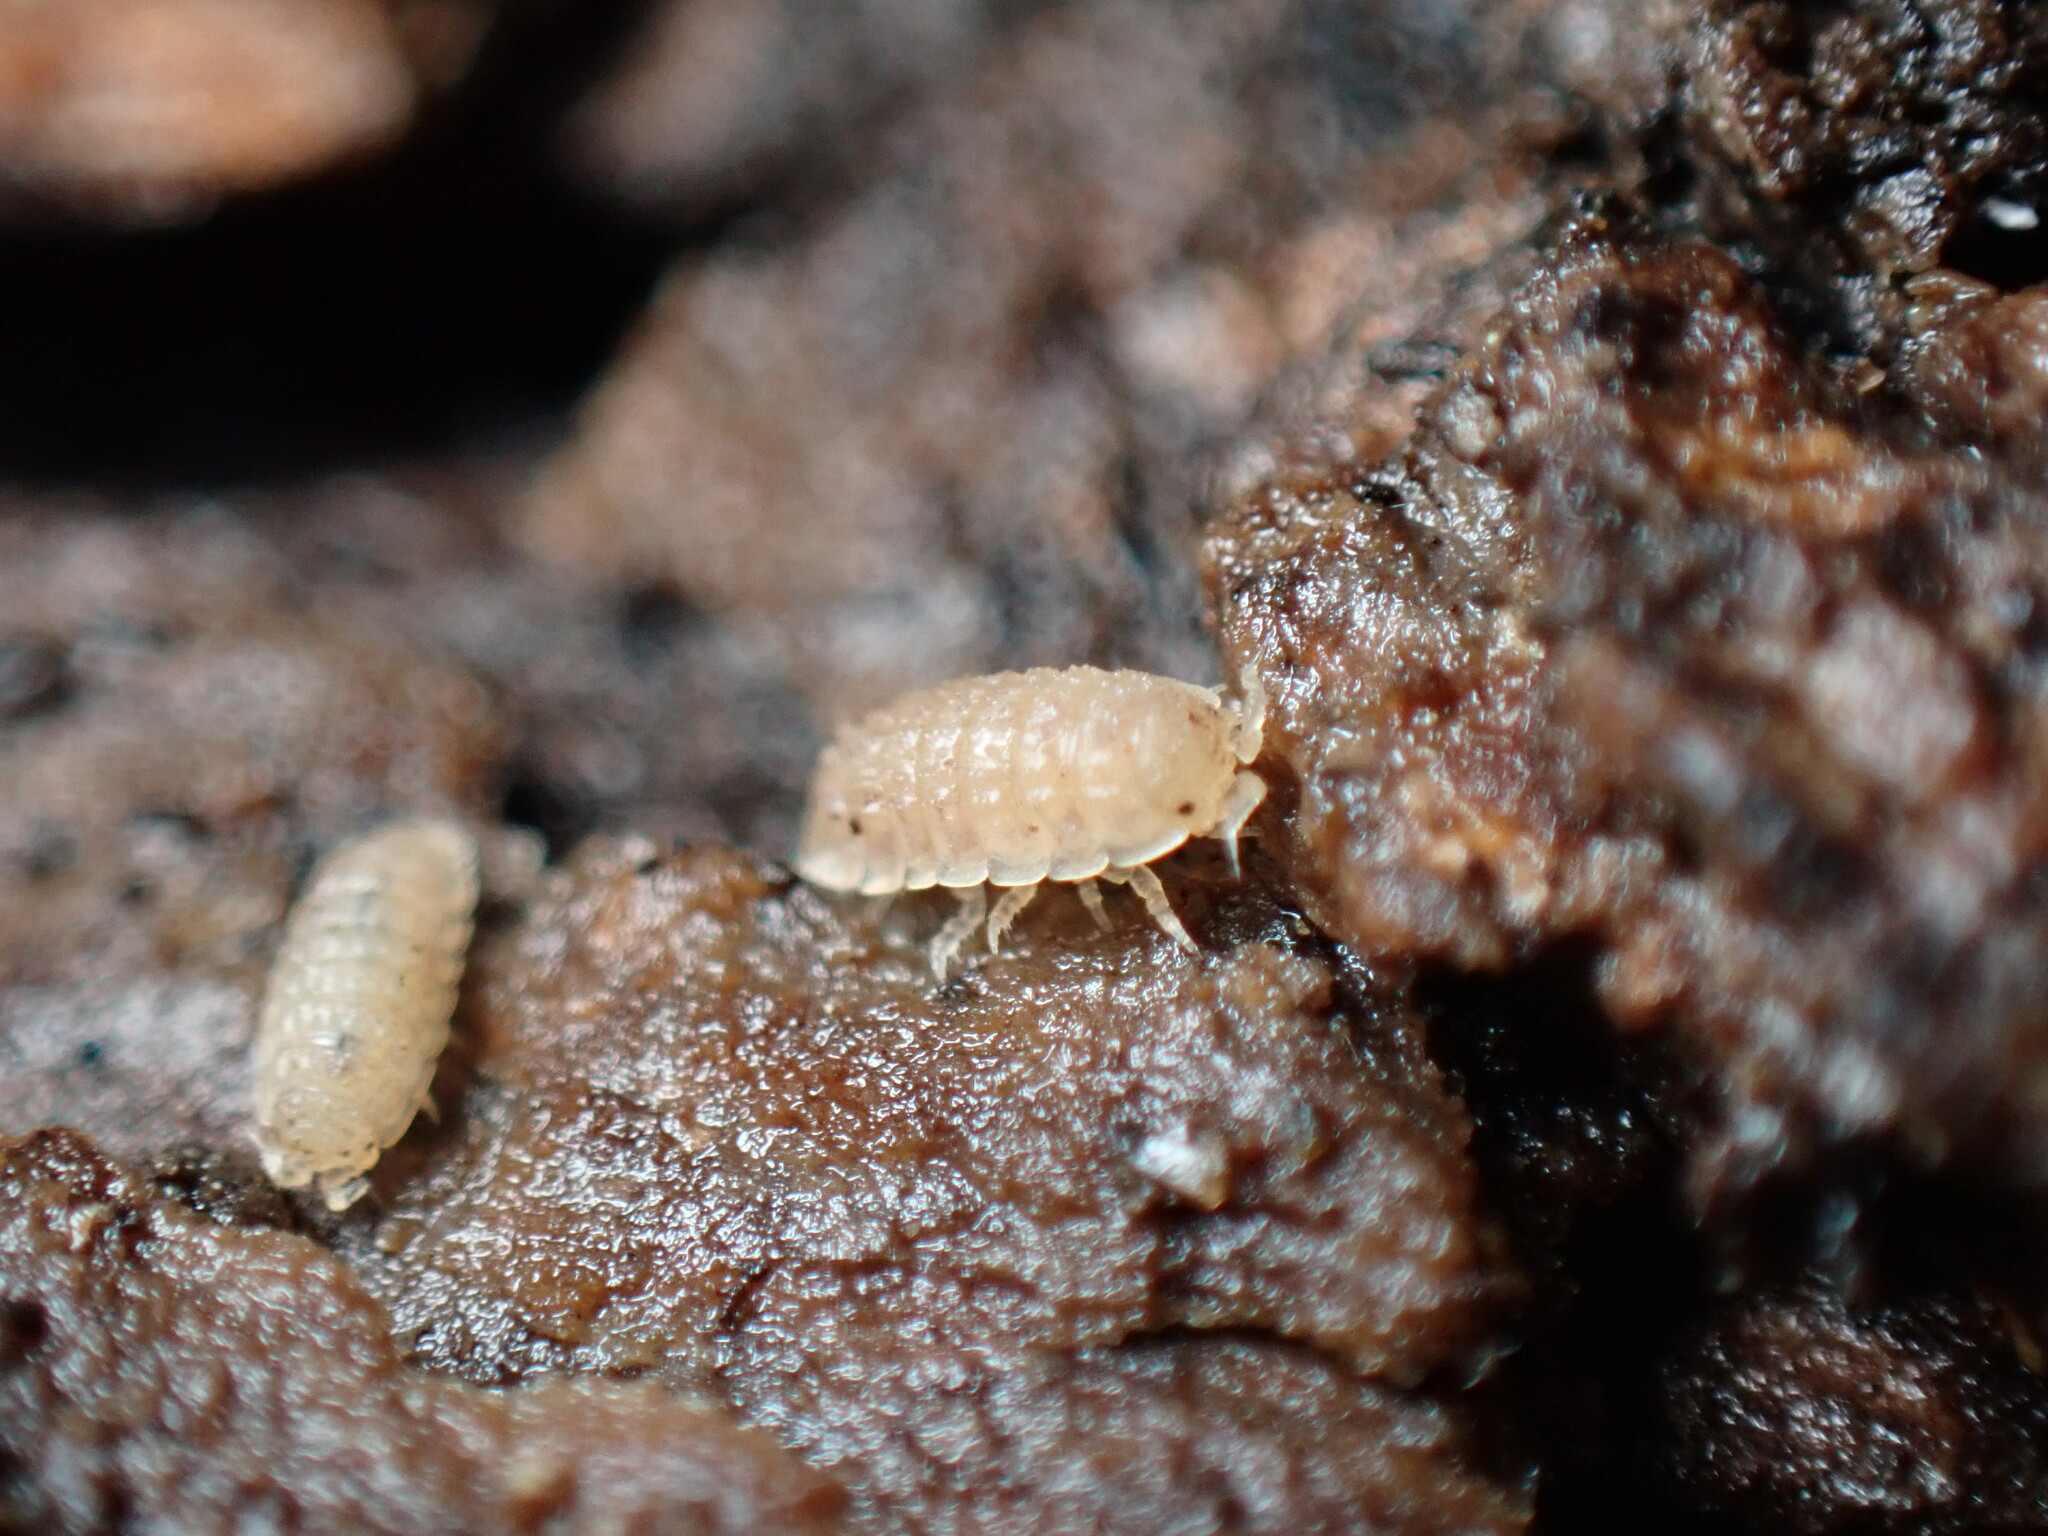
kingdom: Animalia
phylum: Arthropoda
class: Malacostraca
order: Isopoda
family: Trichoniscidae
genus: Haplophthalmus
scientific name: Haplophthalmus danicus
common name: Pillbug
